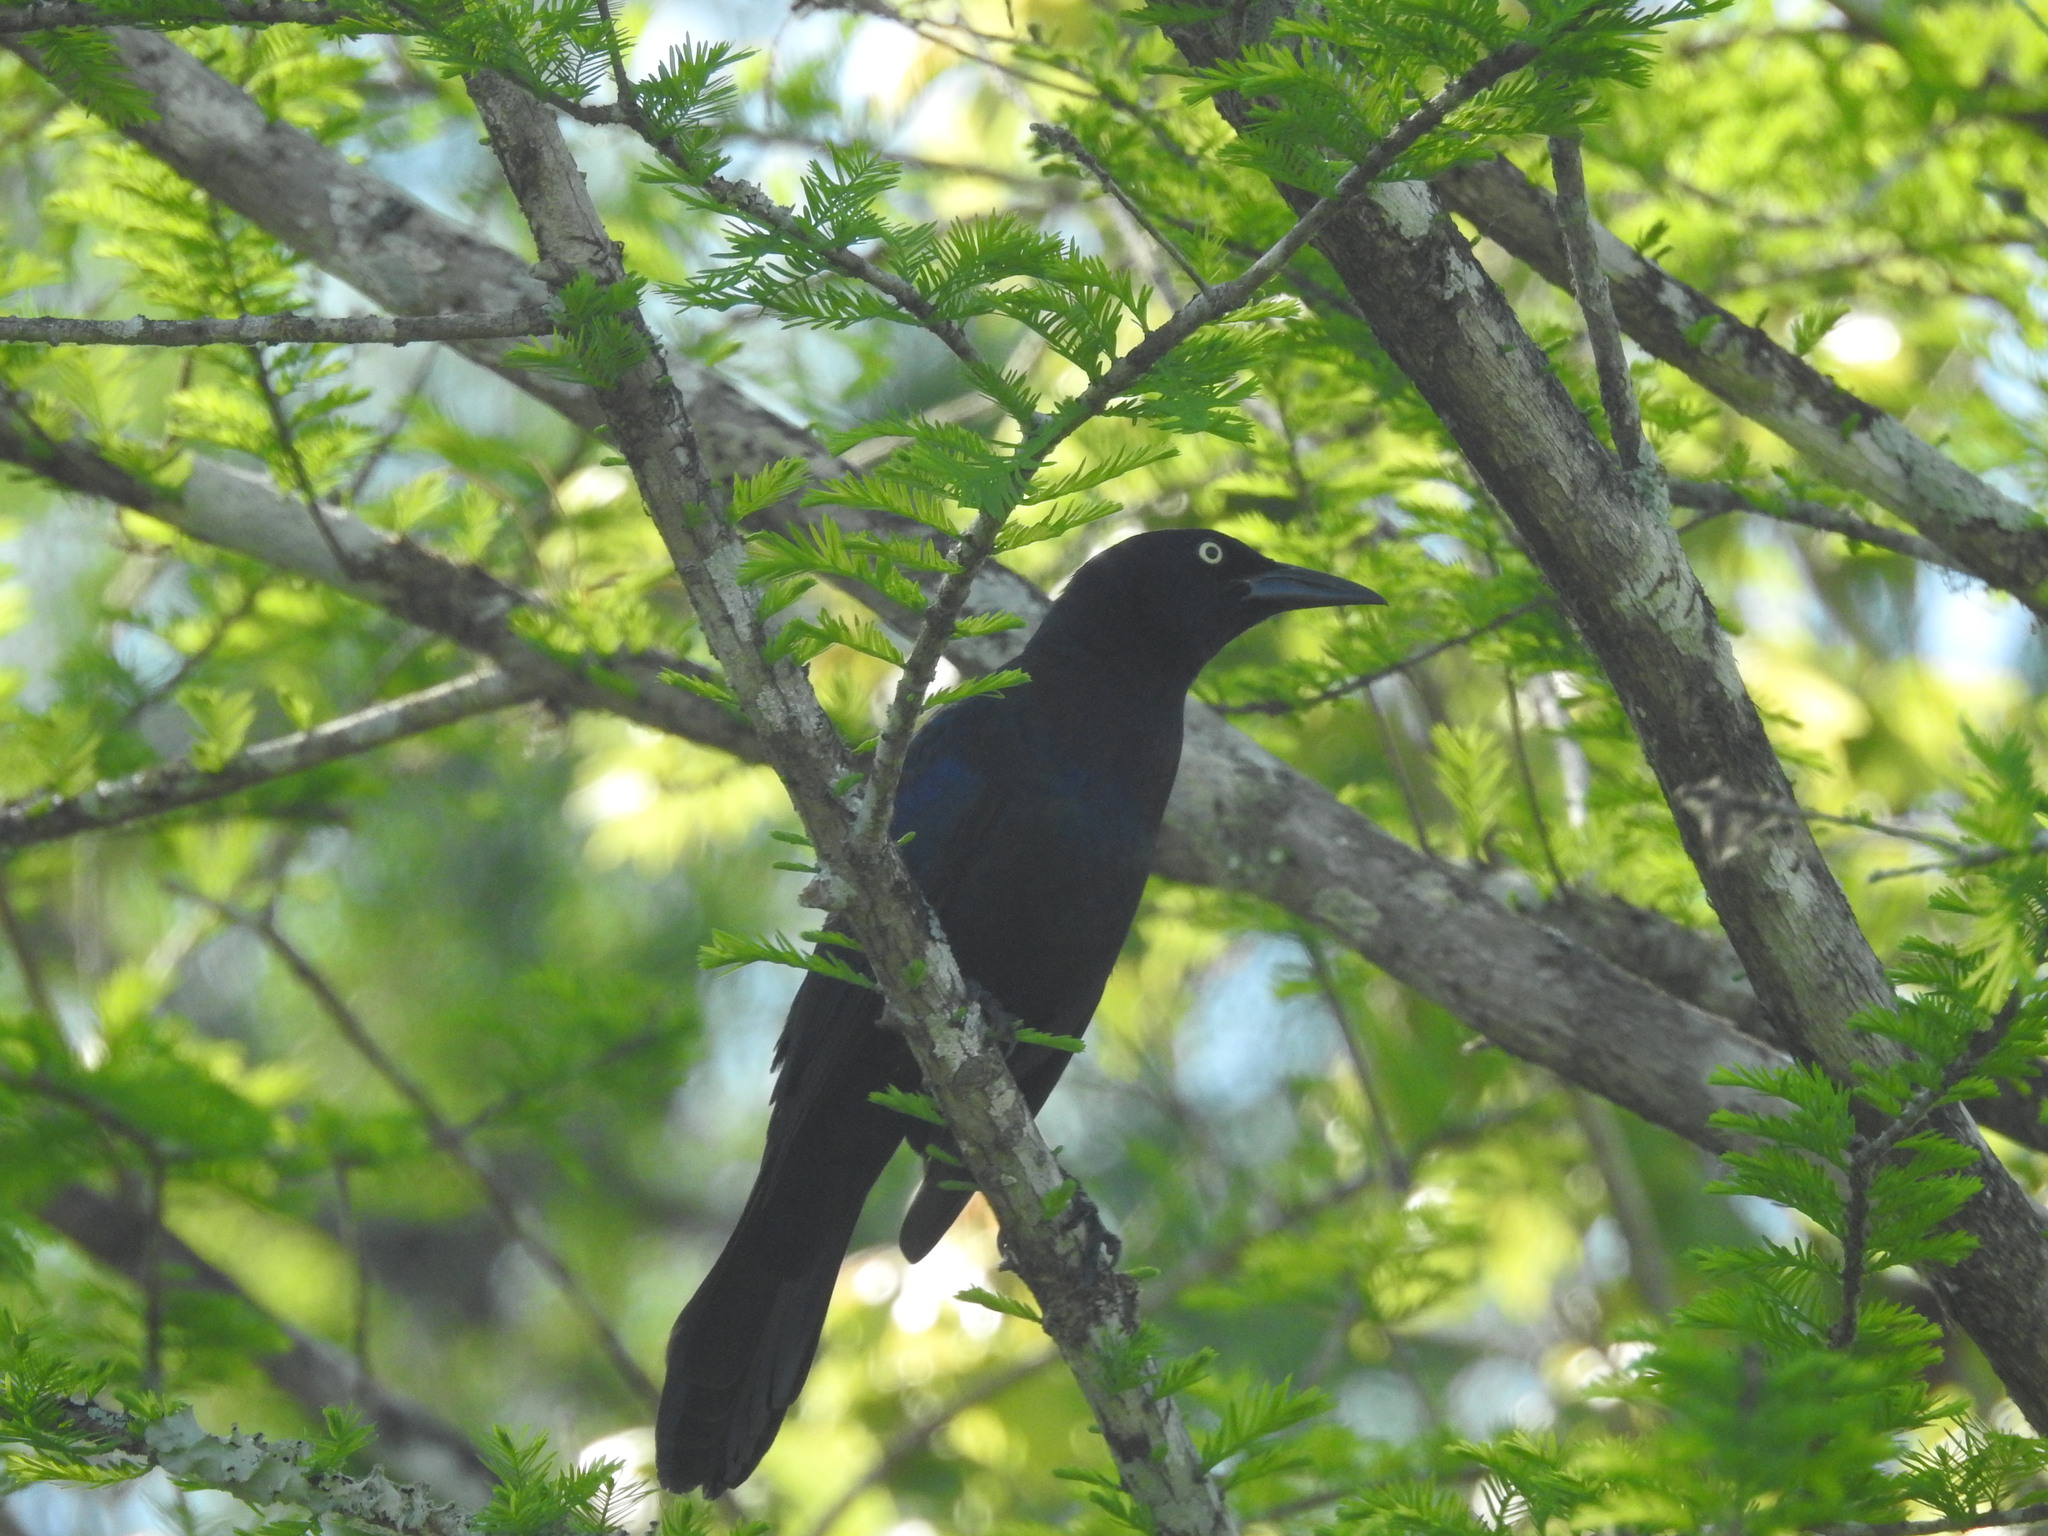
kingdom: Animalia
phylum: Chordata
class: Aves
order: Passeriformes
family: Icteridae
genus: Quiscalus
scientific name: Quiscalus quiscula
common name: Common grackle
